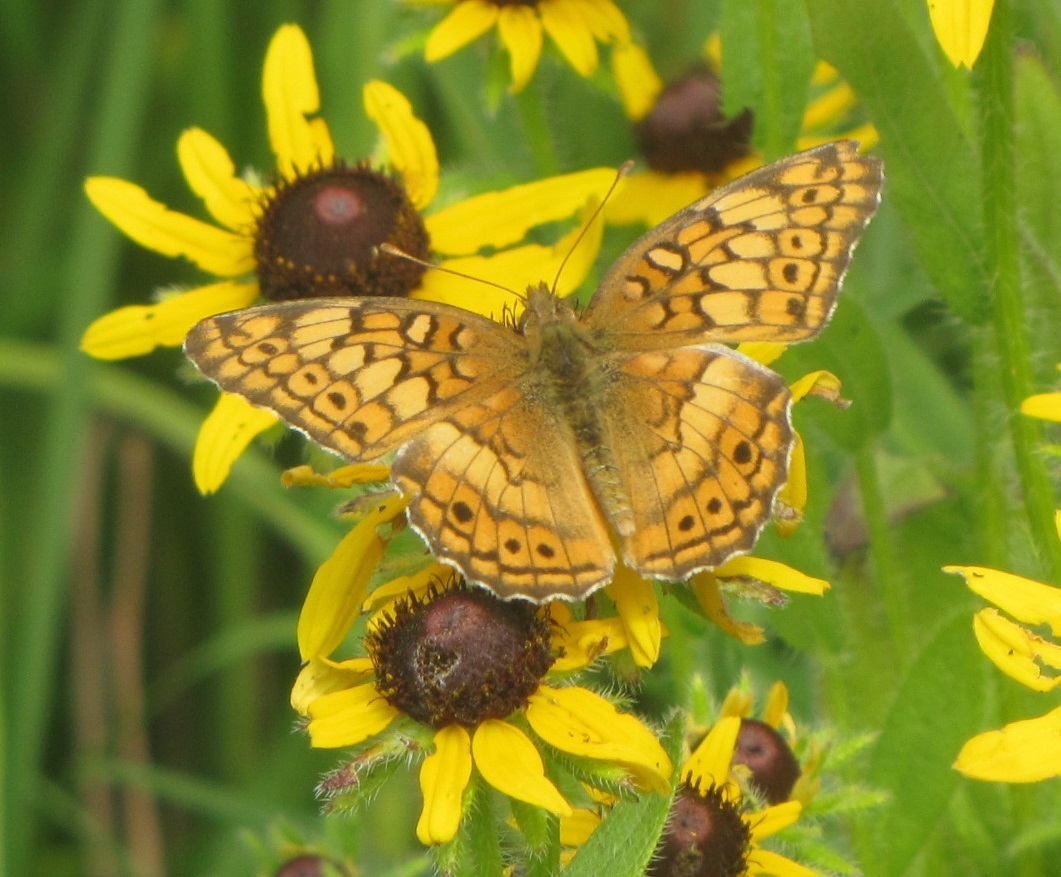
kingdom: Animalia
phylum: Arthropoda
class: Insecta
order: Lepidoptera
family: Nymphalidae
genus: Euptoieta
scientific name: Euptoieta claudia
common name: Variegated fritillary
